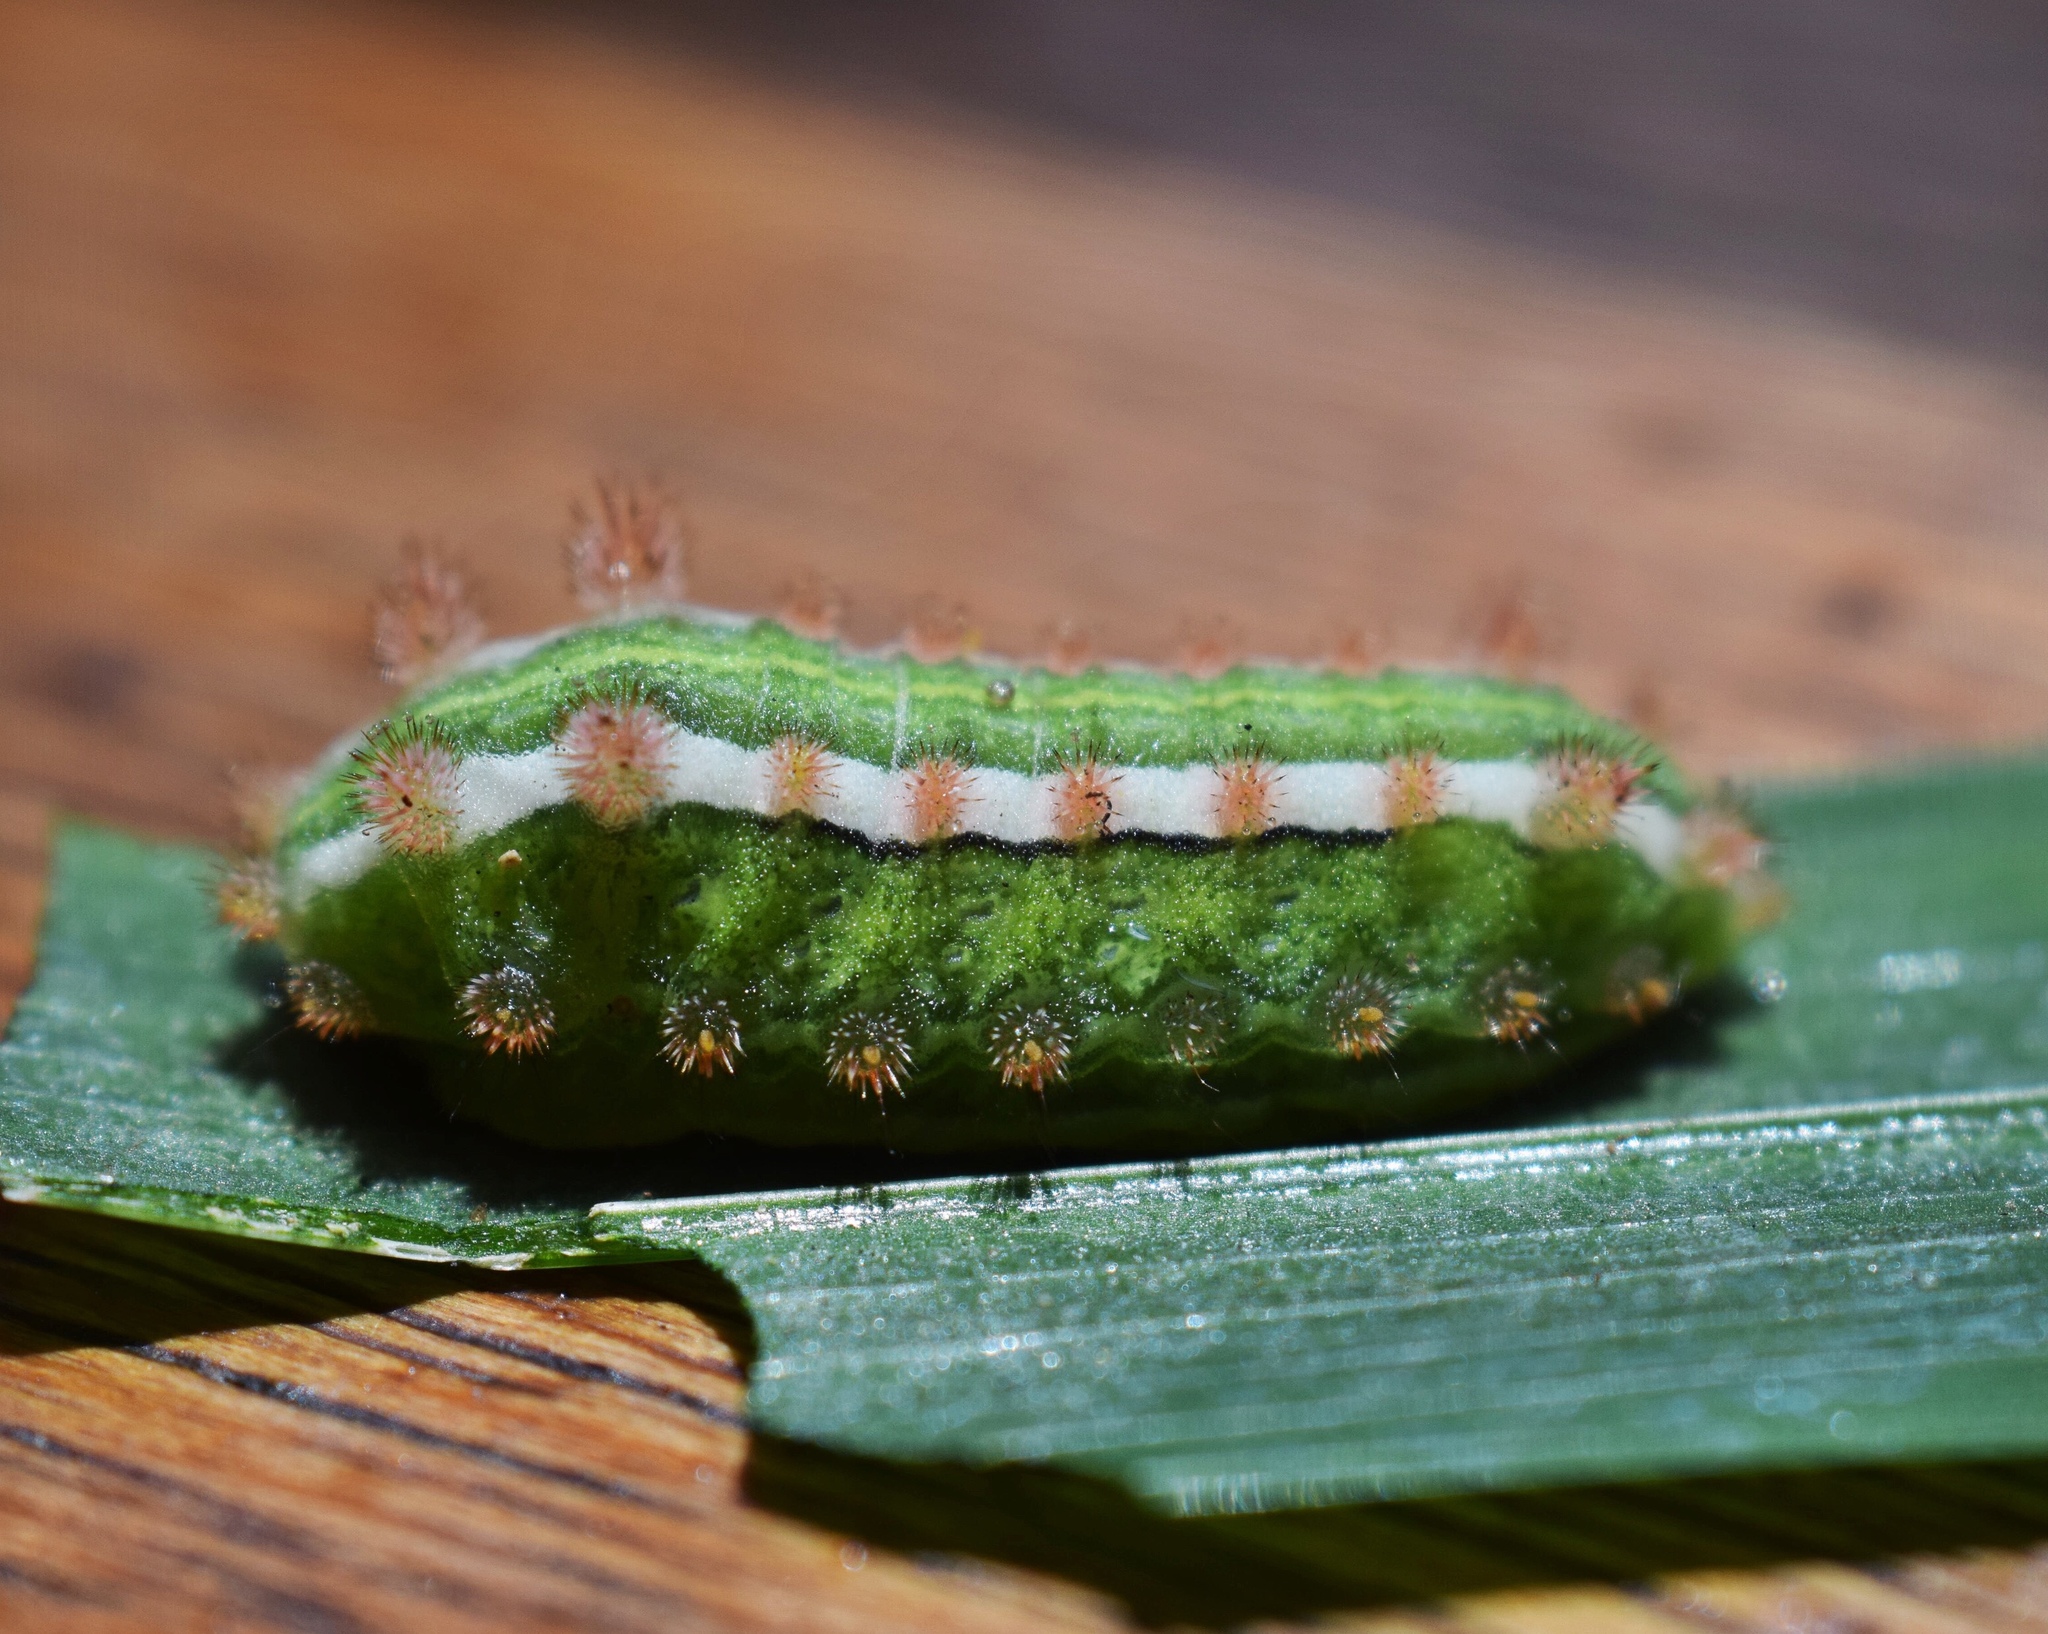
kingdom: Animalia
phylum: Arthropoda
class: Insecta
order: Lepidoptera
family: Limacodidae
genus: Omocenoides
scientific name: Omocenoides isophanes
